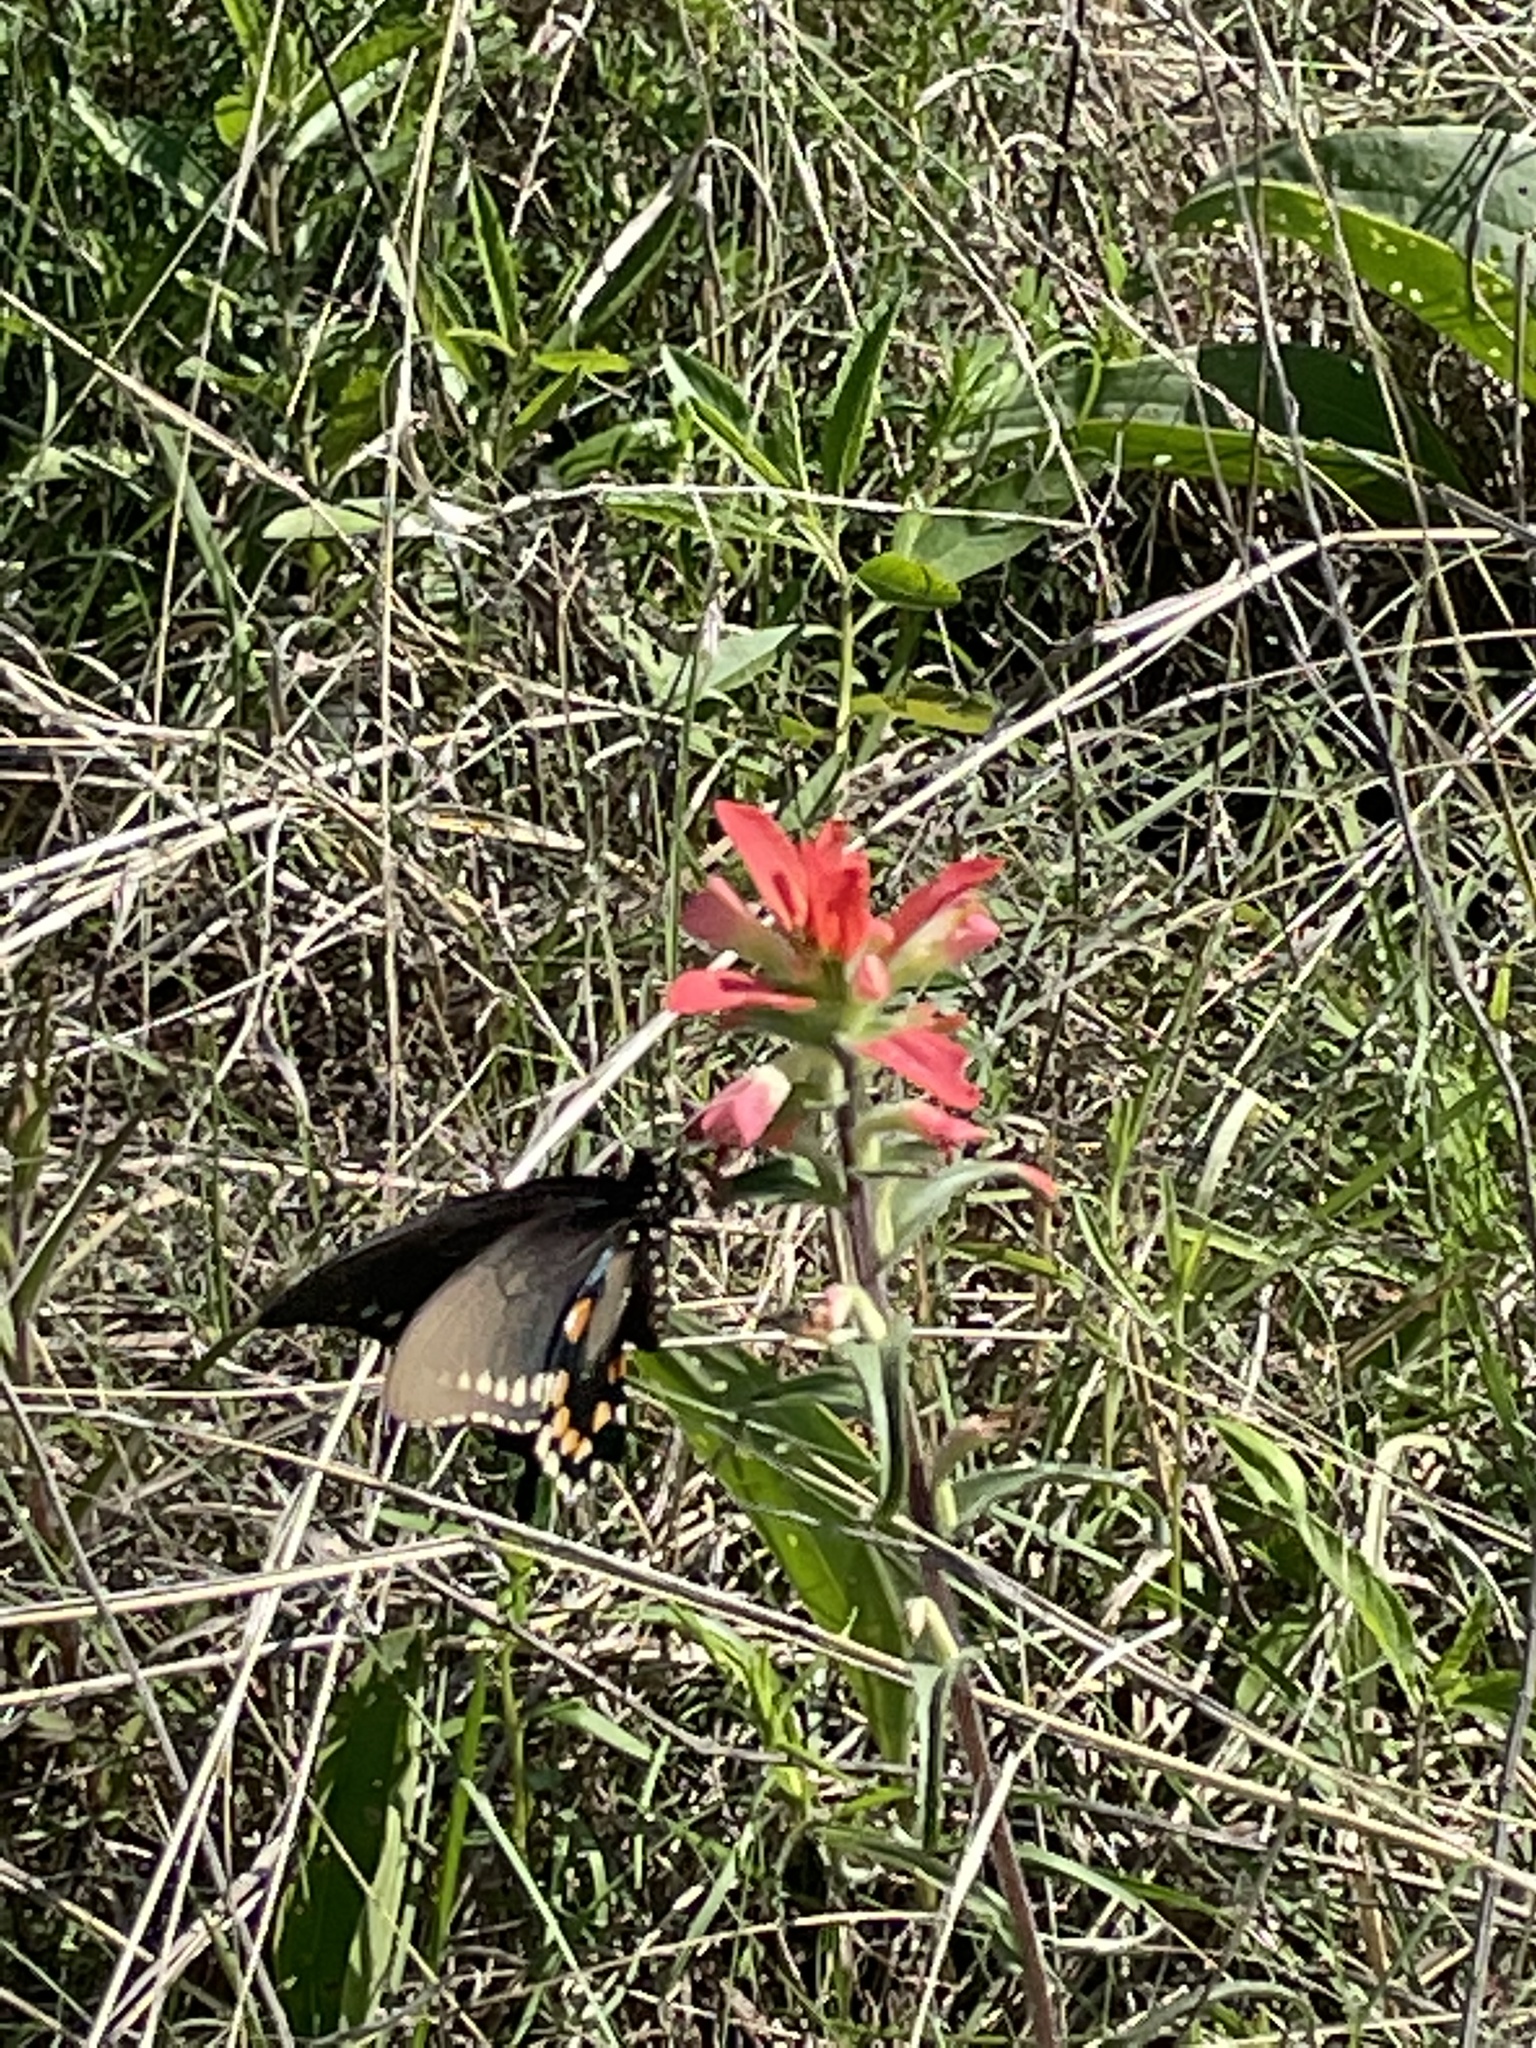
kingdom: Animalia
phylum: Arthropoda
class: Insecta
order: Lepidoptera
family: Papilionidae
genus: Battus
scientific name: Battus philenor
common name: Pipevine swallowtail
